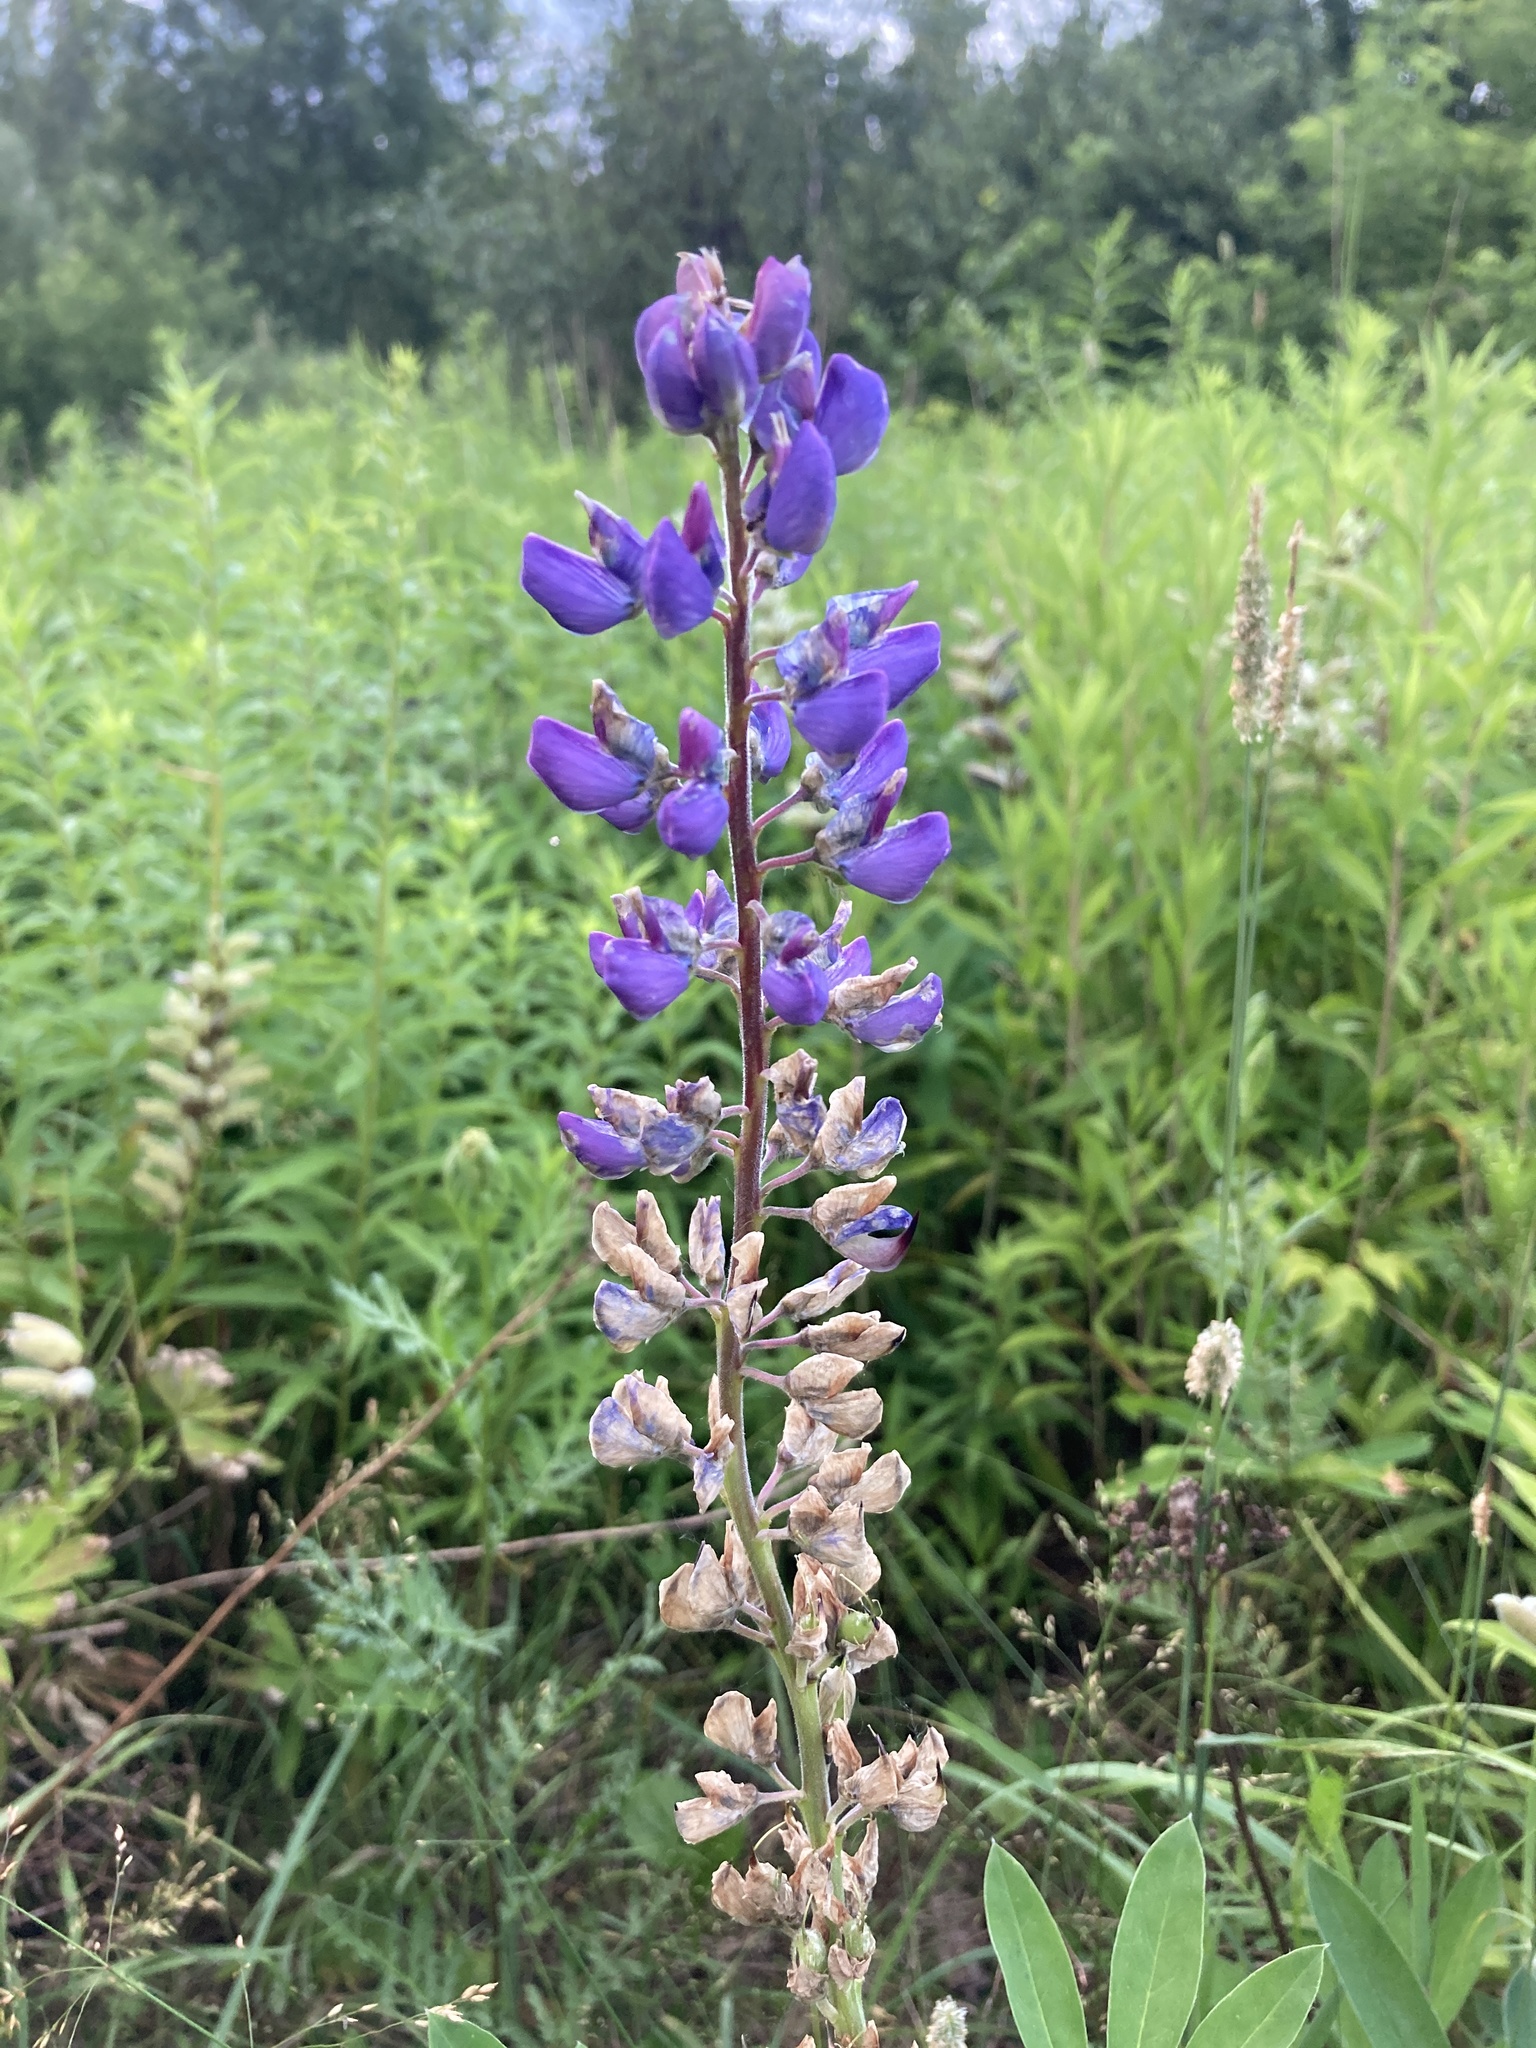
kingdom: Plantae
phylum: Tracheophyta
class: Magnoliopsida
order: Fabales
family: Fabaceae
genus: Lupinus
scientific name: Lupinus polyphyllus
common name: Garden lupin
